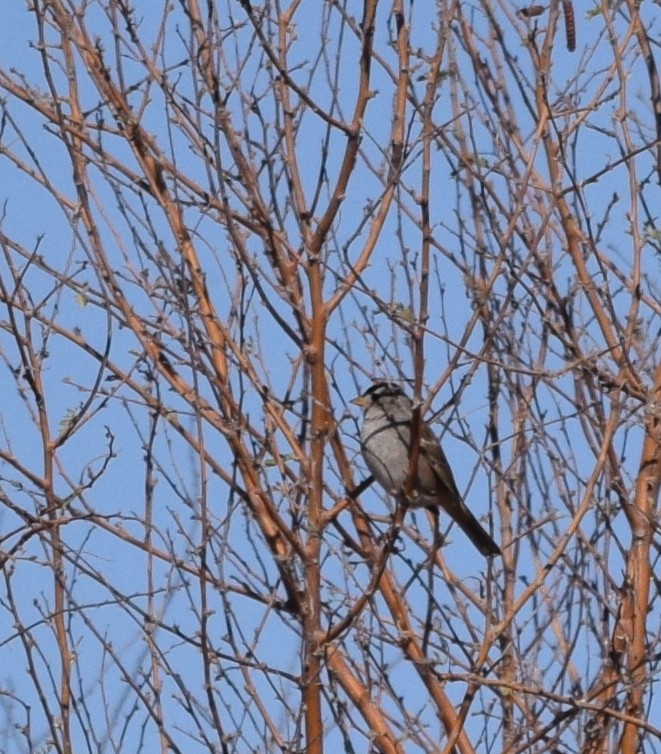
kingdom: Animalia
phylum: Chordata
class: Aves
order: Passeriformes
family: Passerellidae
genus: Zonotrichia
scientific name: Zonotrichia leucophrys
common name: White-crowned sparrow
